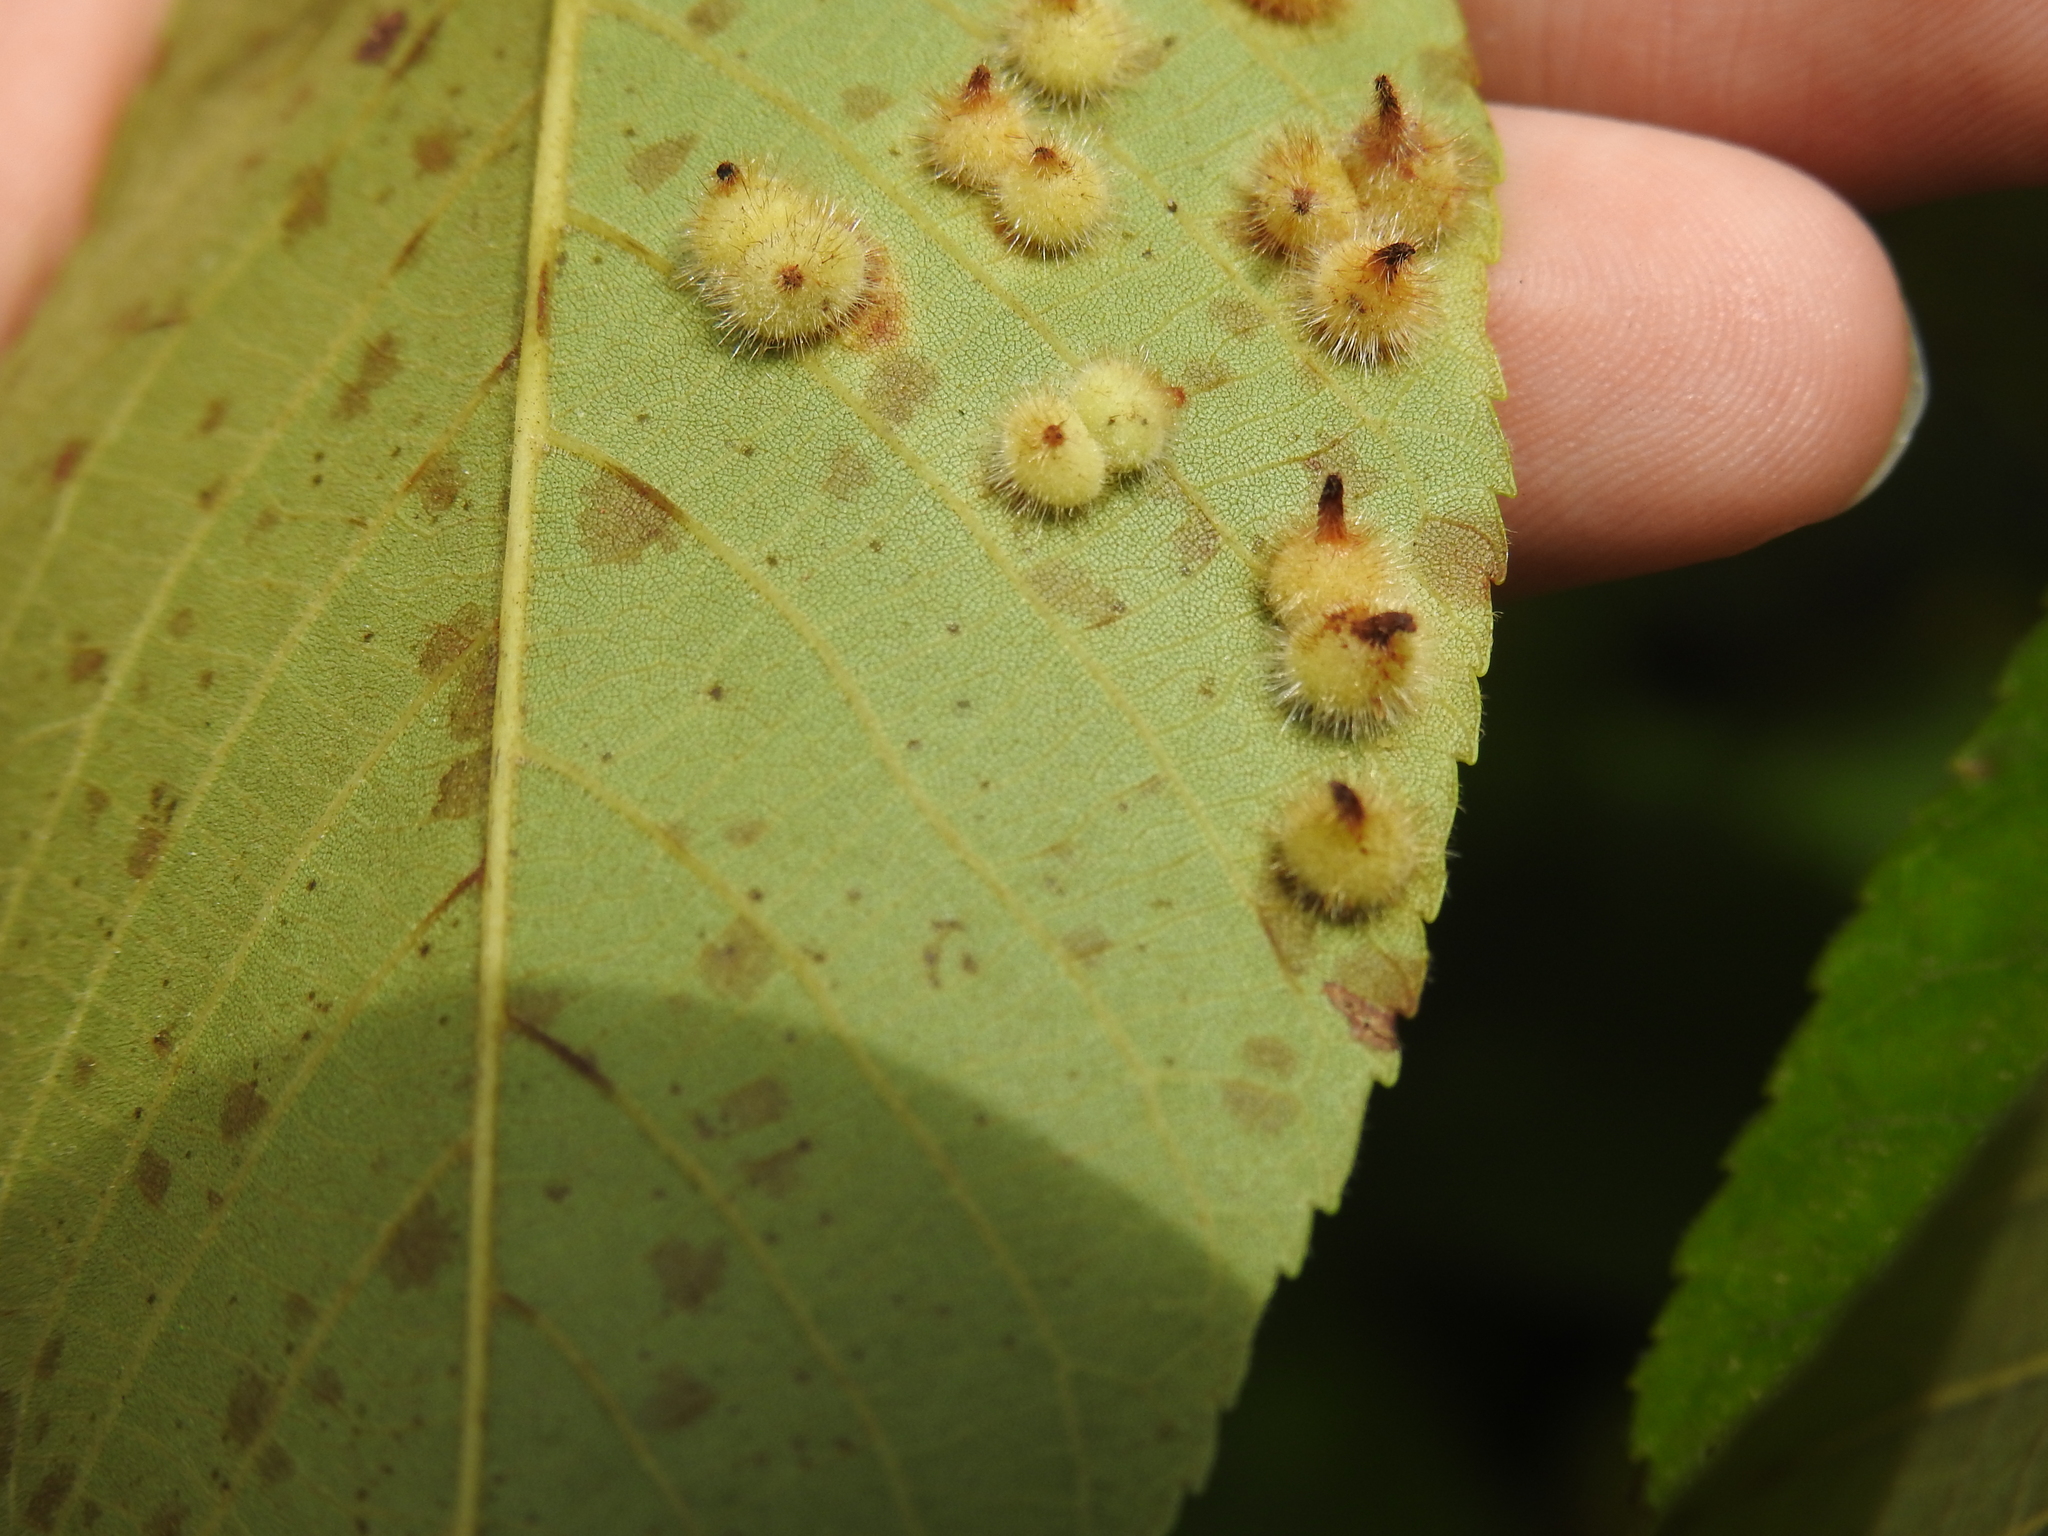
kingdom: Animalia
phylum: Arthropoda
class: Insecta
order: Diptera
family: Cecidomyiidae
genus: Caryomyia
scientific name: Caryomyia echinata
